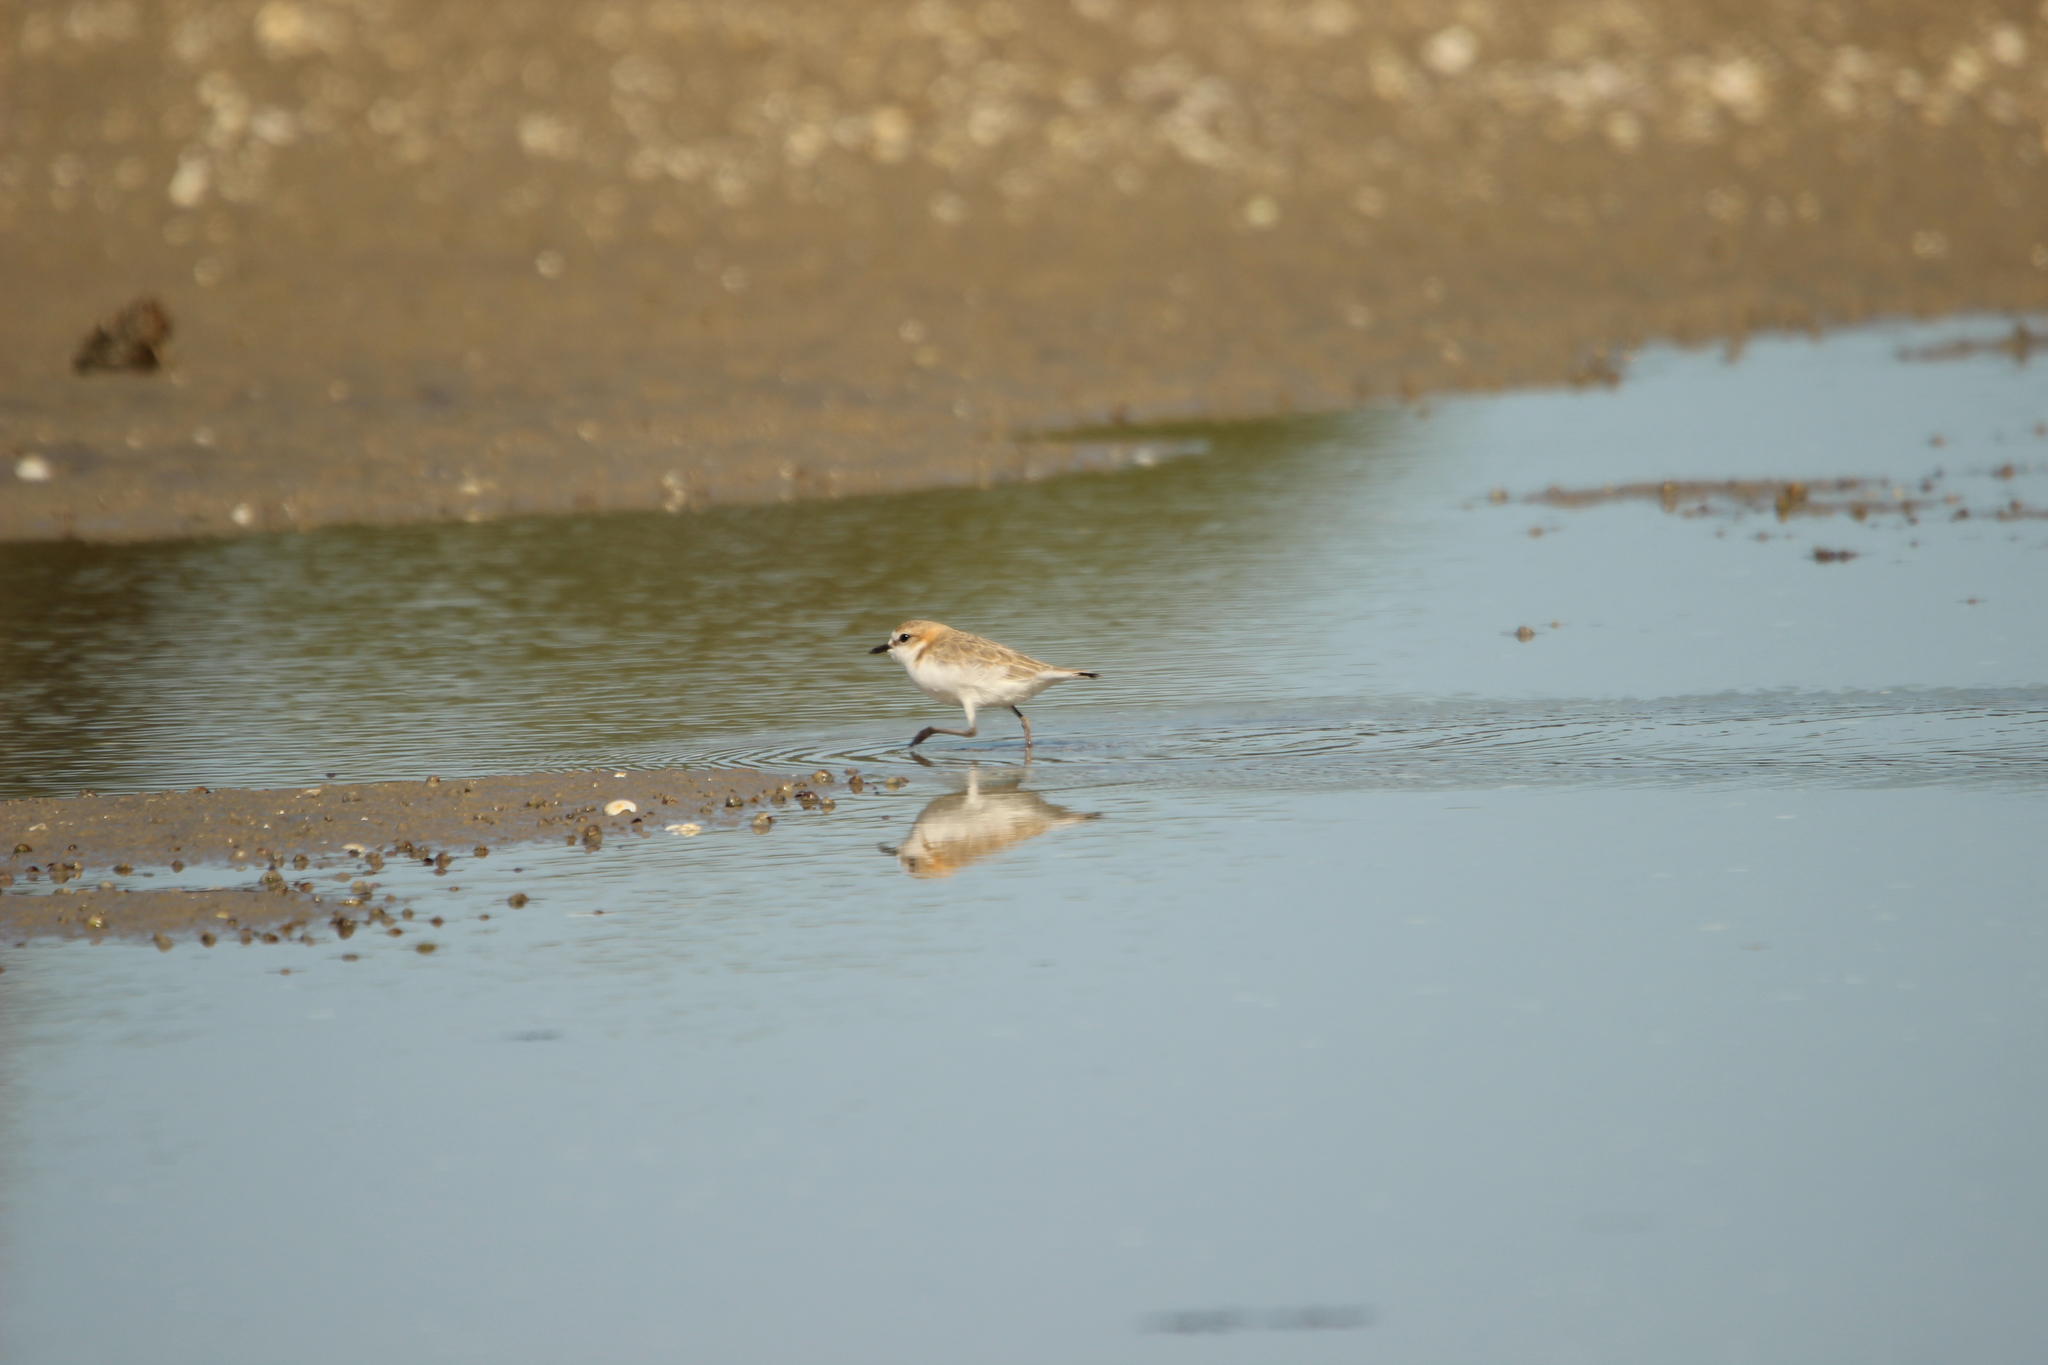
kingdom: Animalia
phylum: Chordata
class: Aves
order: Charadriiformes
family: Charadriidae
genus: Anarhynchus
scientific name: Anarhynchus
